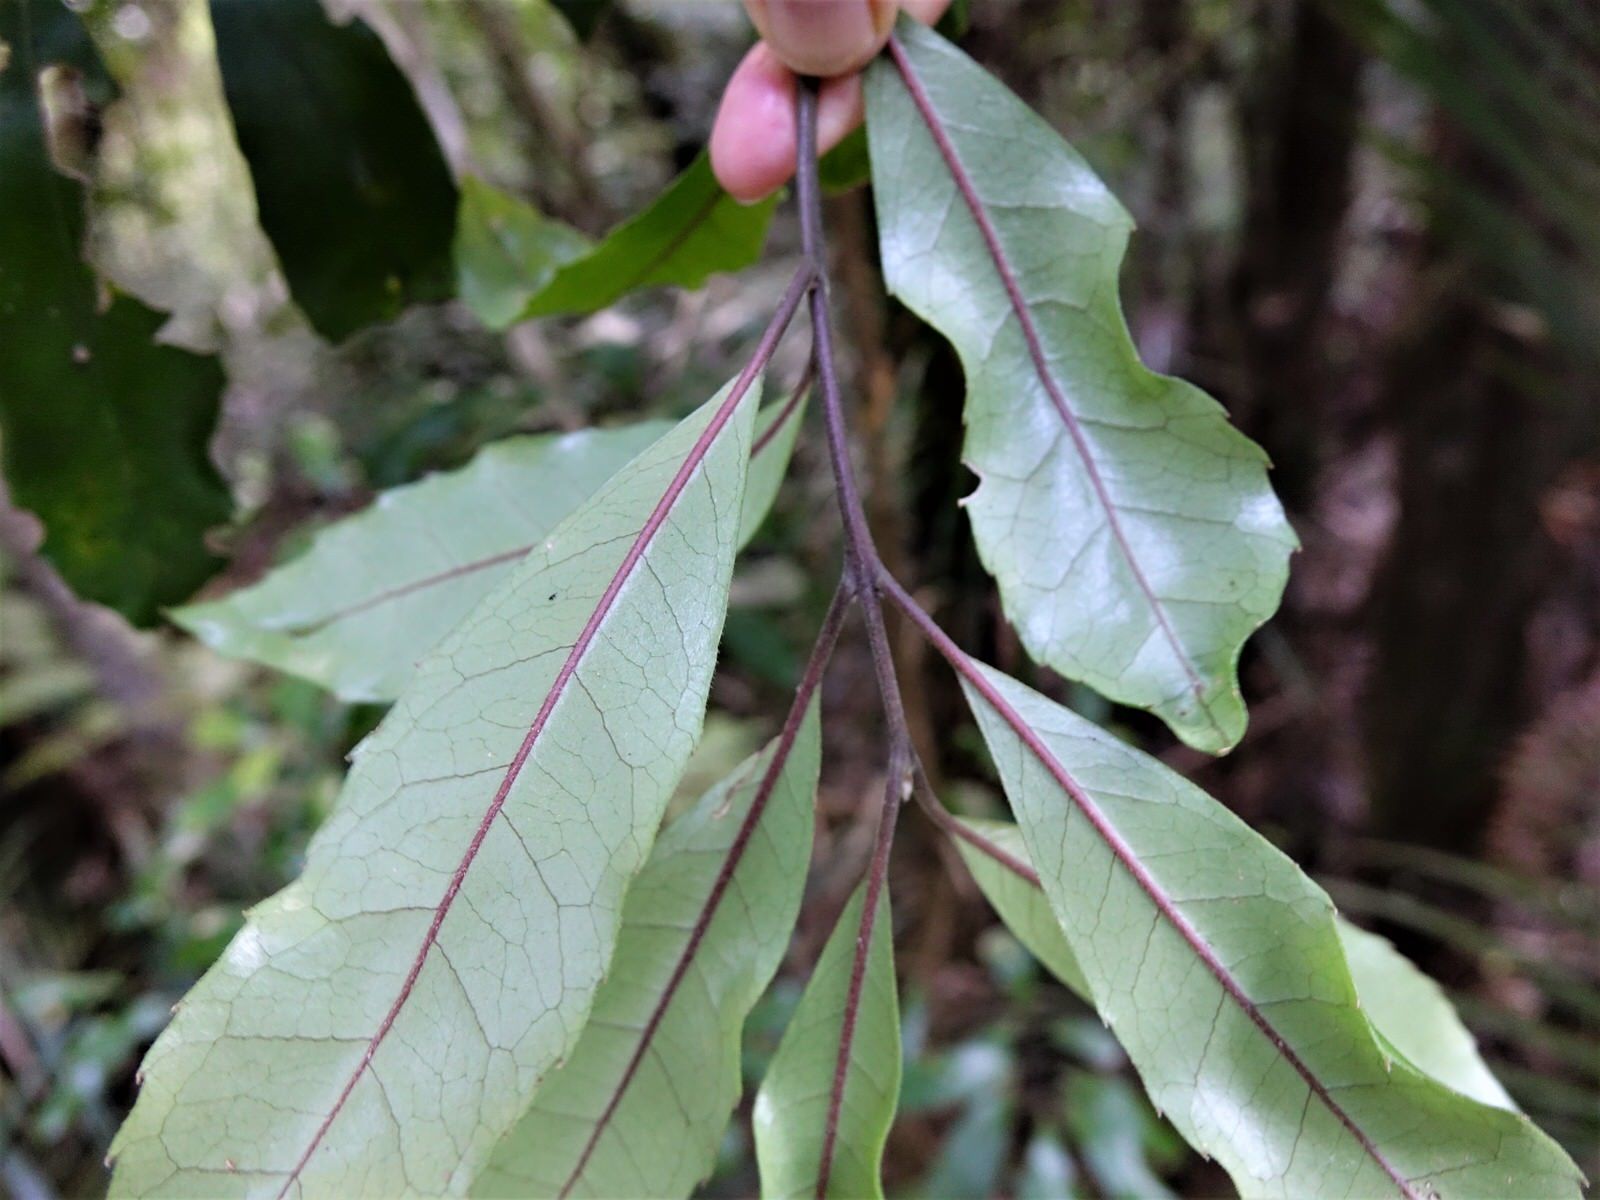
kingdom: Plantae
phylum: Tracheophyta
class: Magnoliopsida
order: Laurales
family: Monimiaceae
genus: Hedycarya
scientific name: Hedycarya arborea
